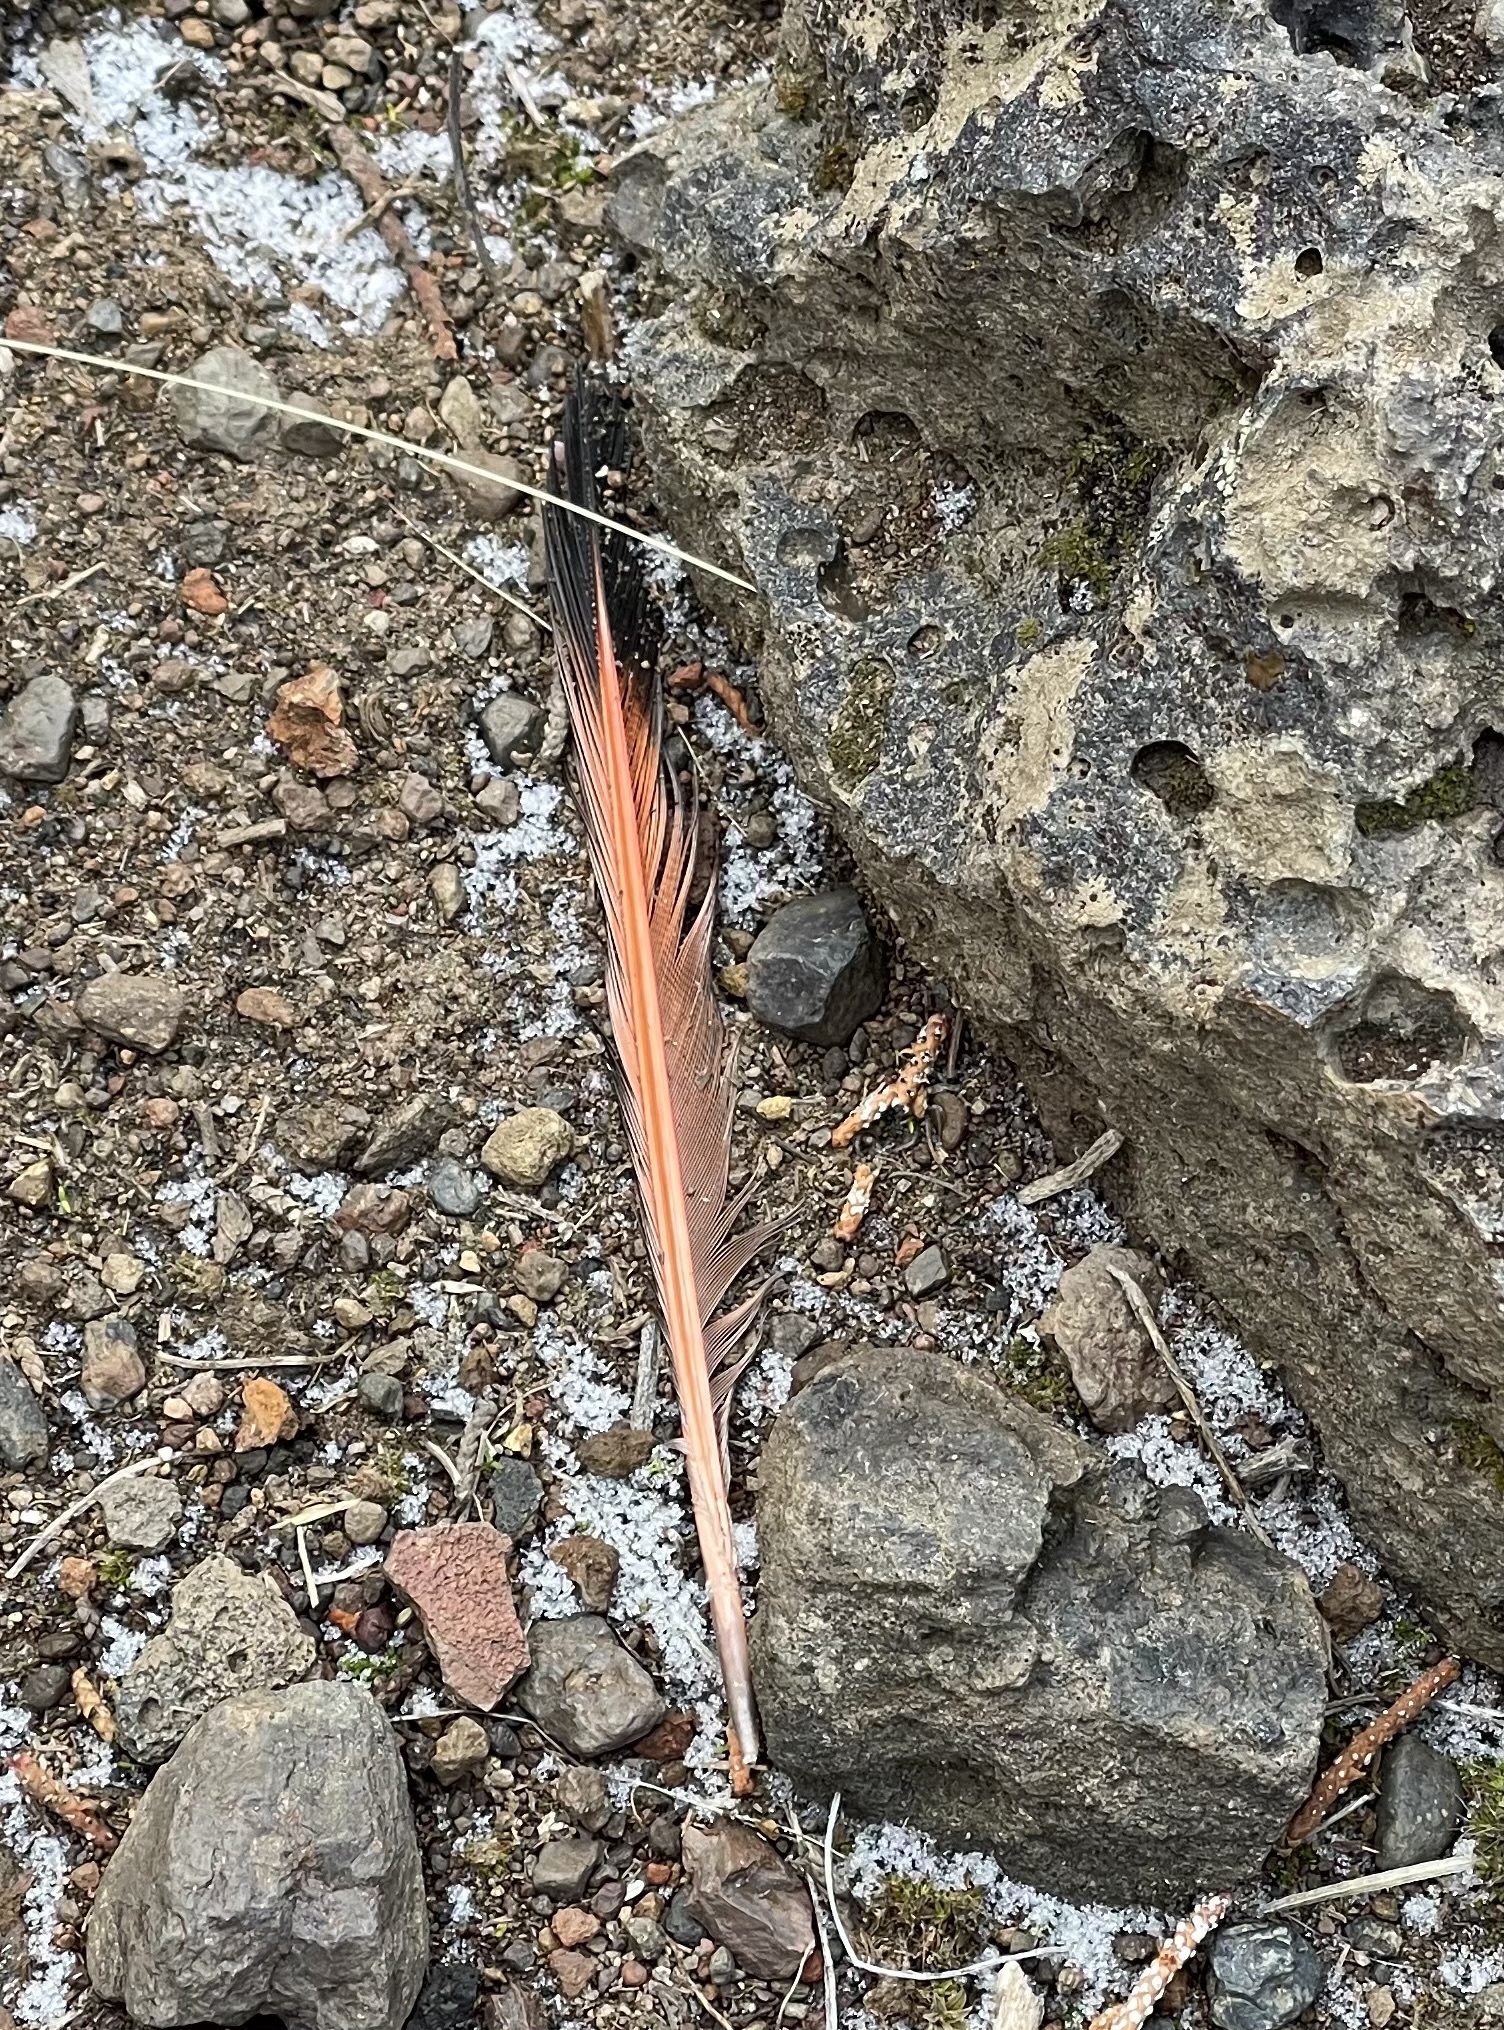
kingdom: Animalia
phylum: Chordata
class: Aves
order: Piciformes
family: Picidae
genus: Colaptes
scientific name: Colaptes auratus
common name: Northern flicker
